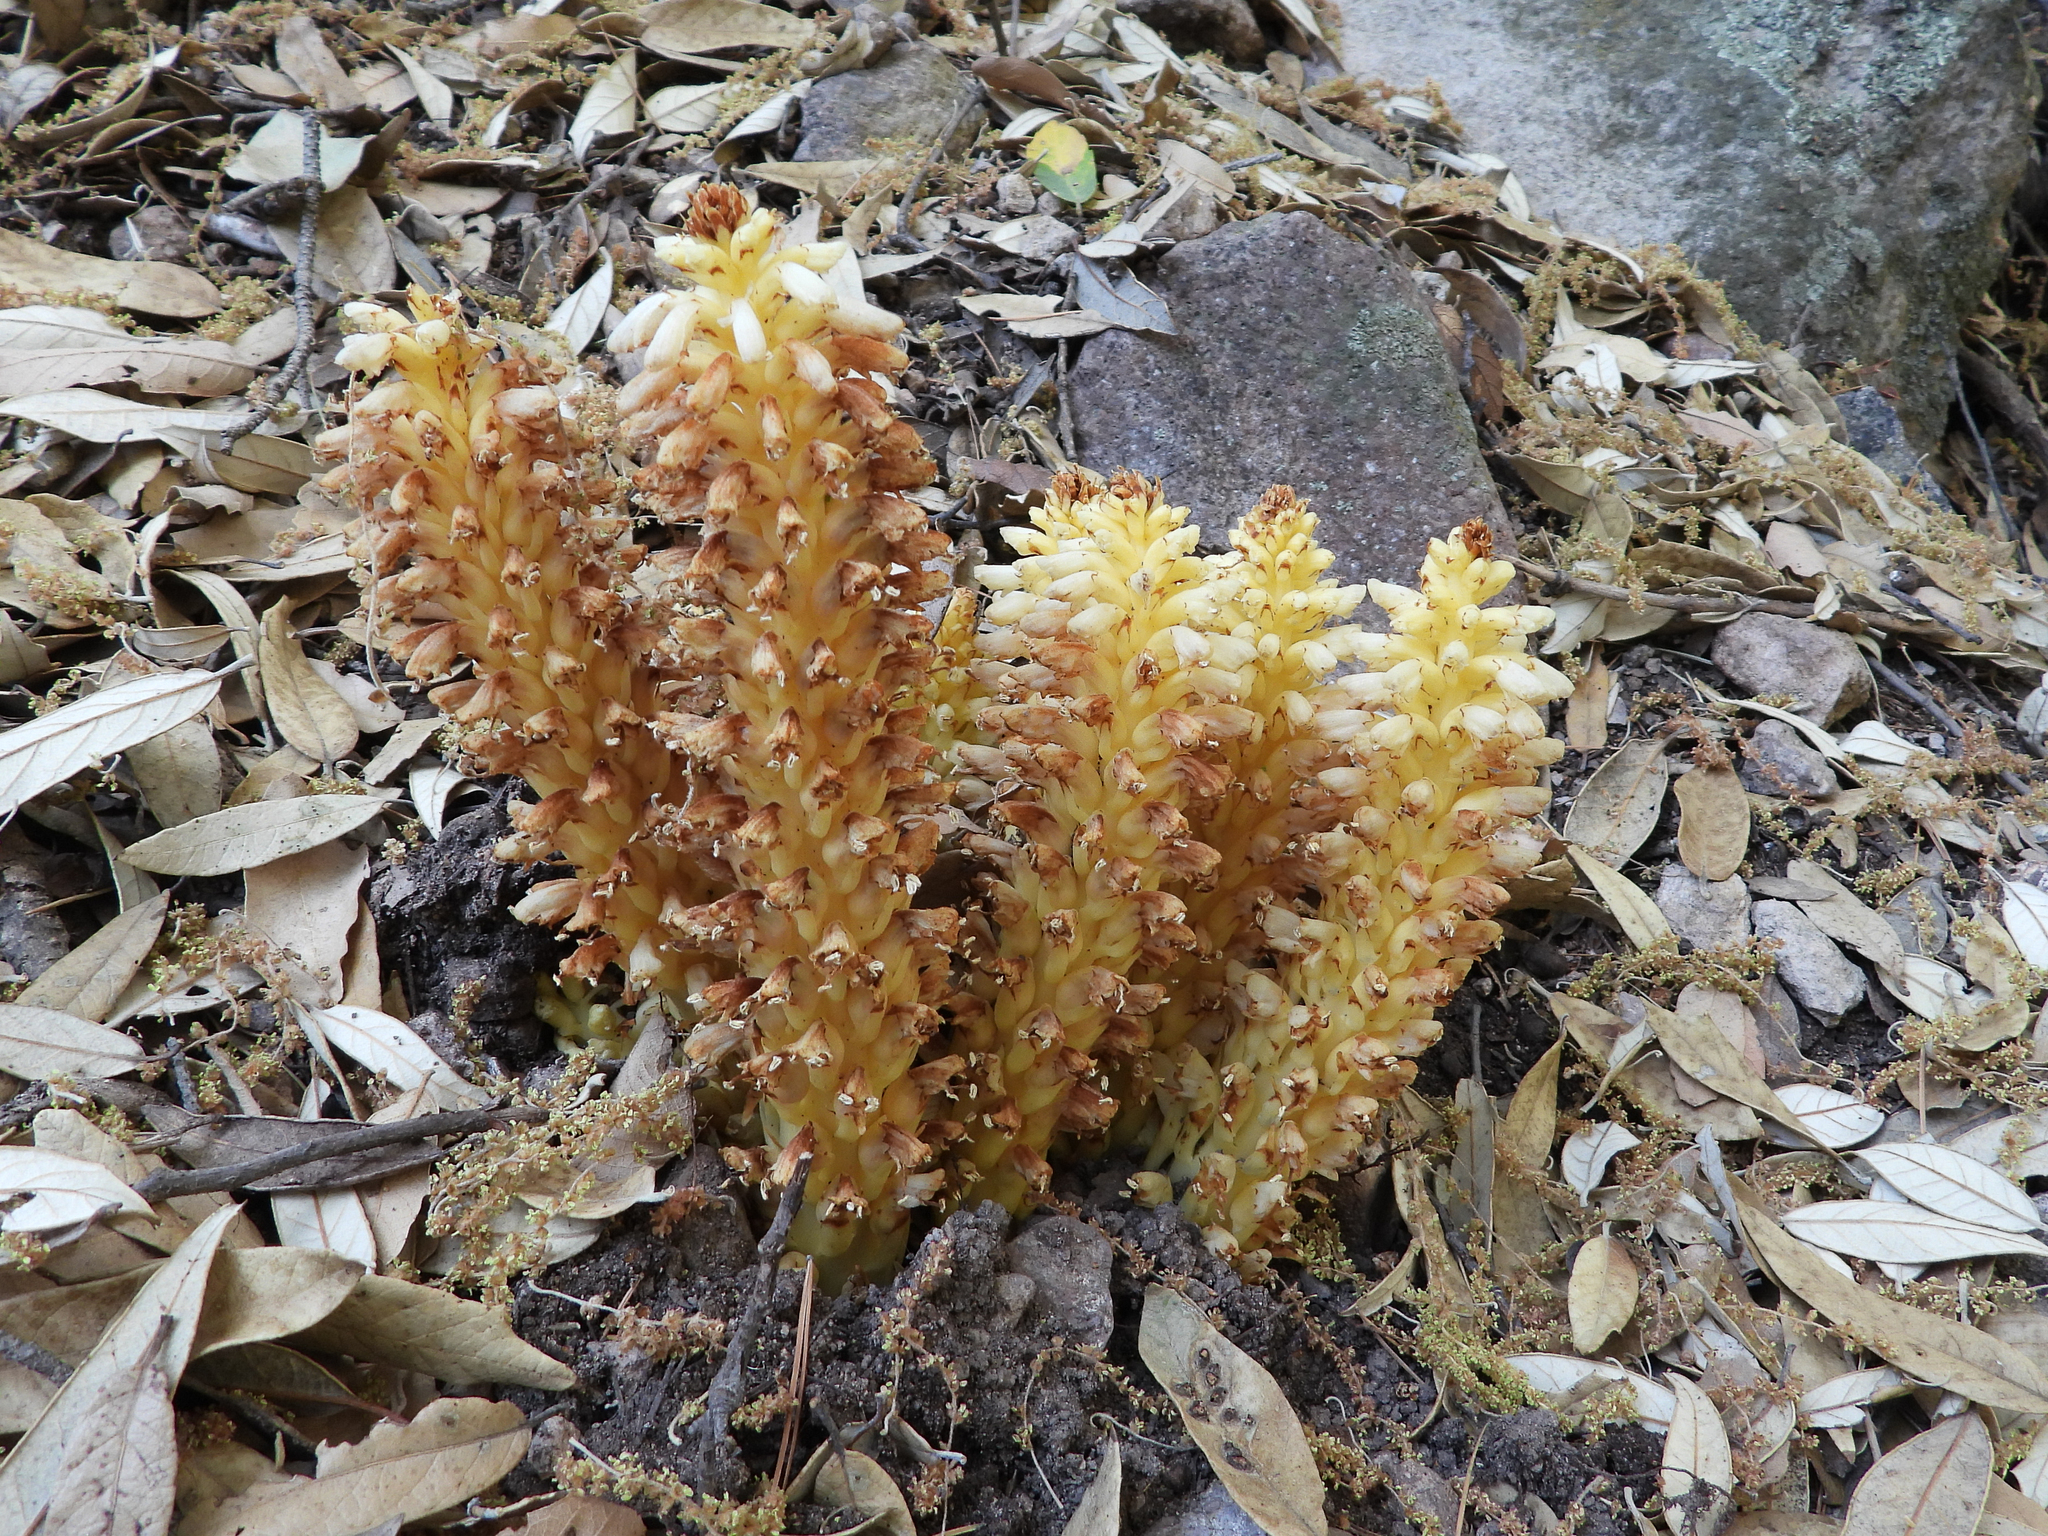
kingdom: Plantae
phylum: Tracheophyta
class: Magnoliopsida
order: Lamiales
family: Orobanchaceae
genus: Conopholis
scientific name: Conopholis alpina
